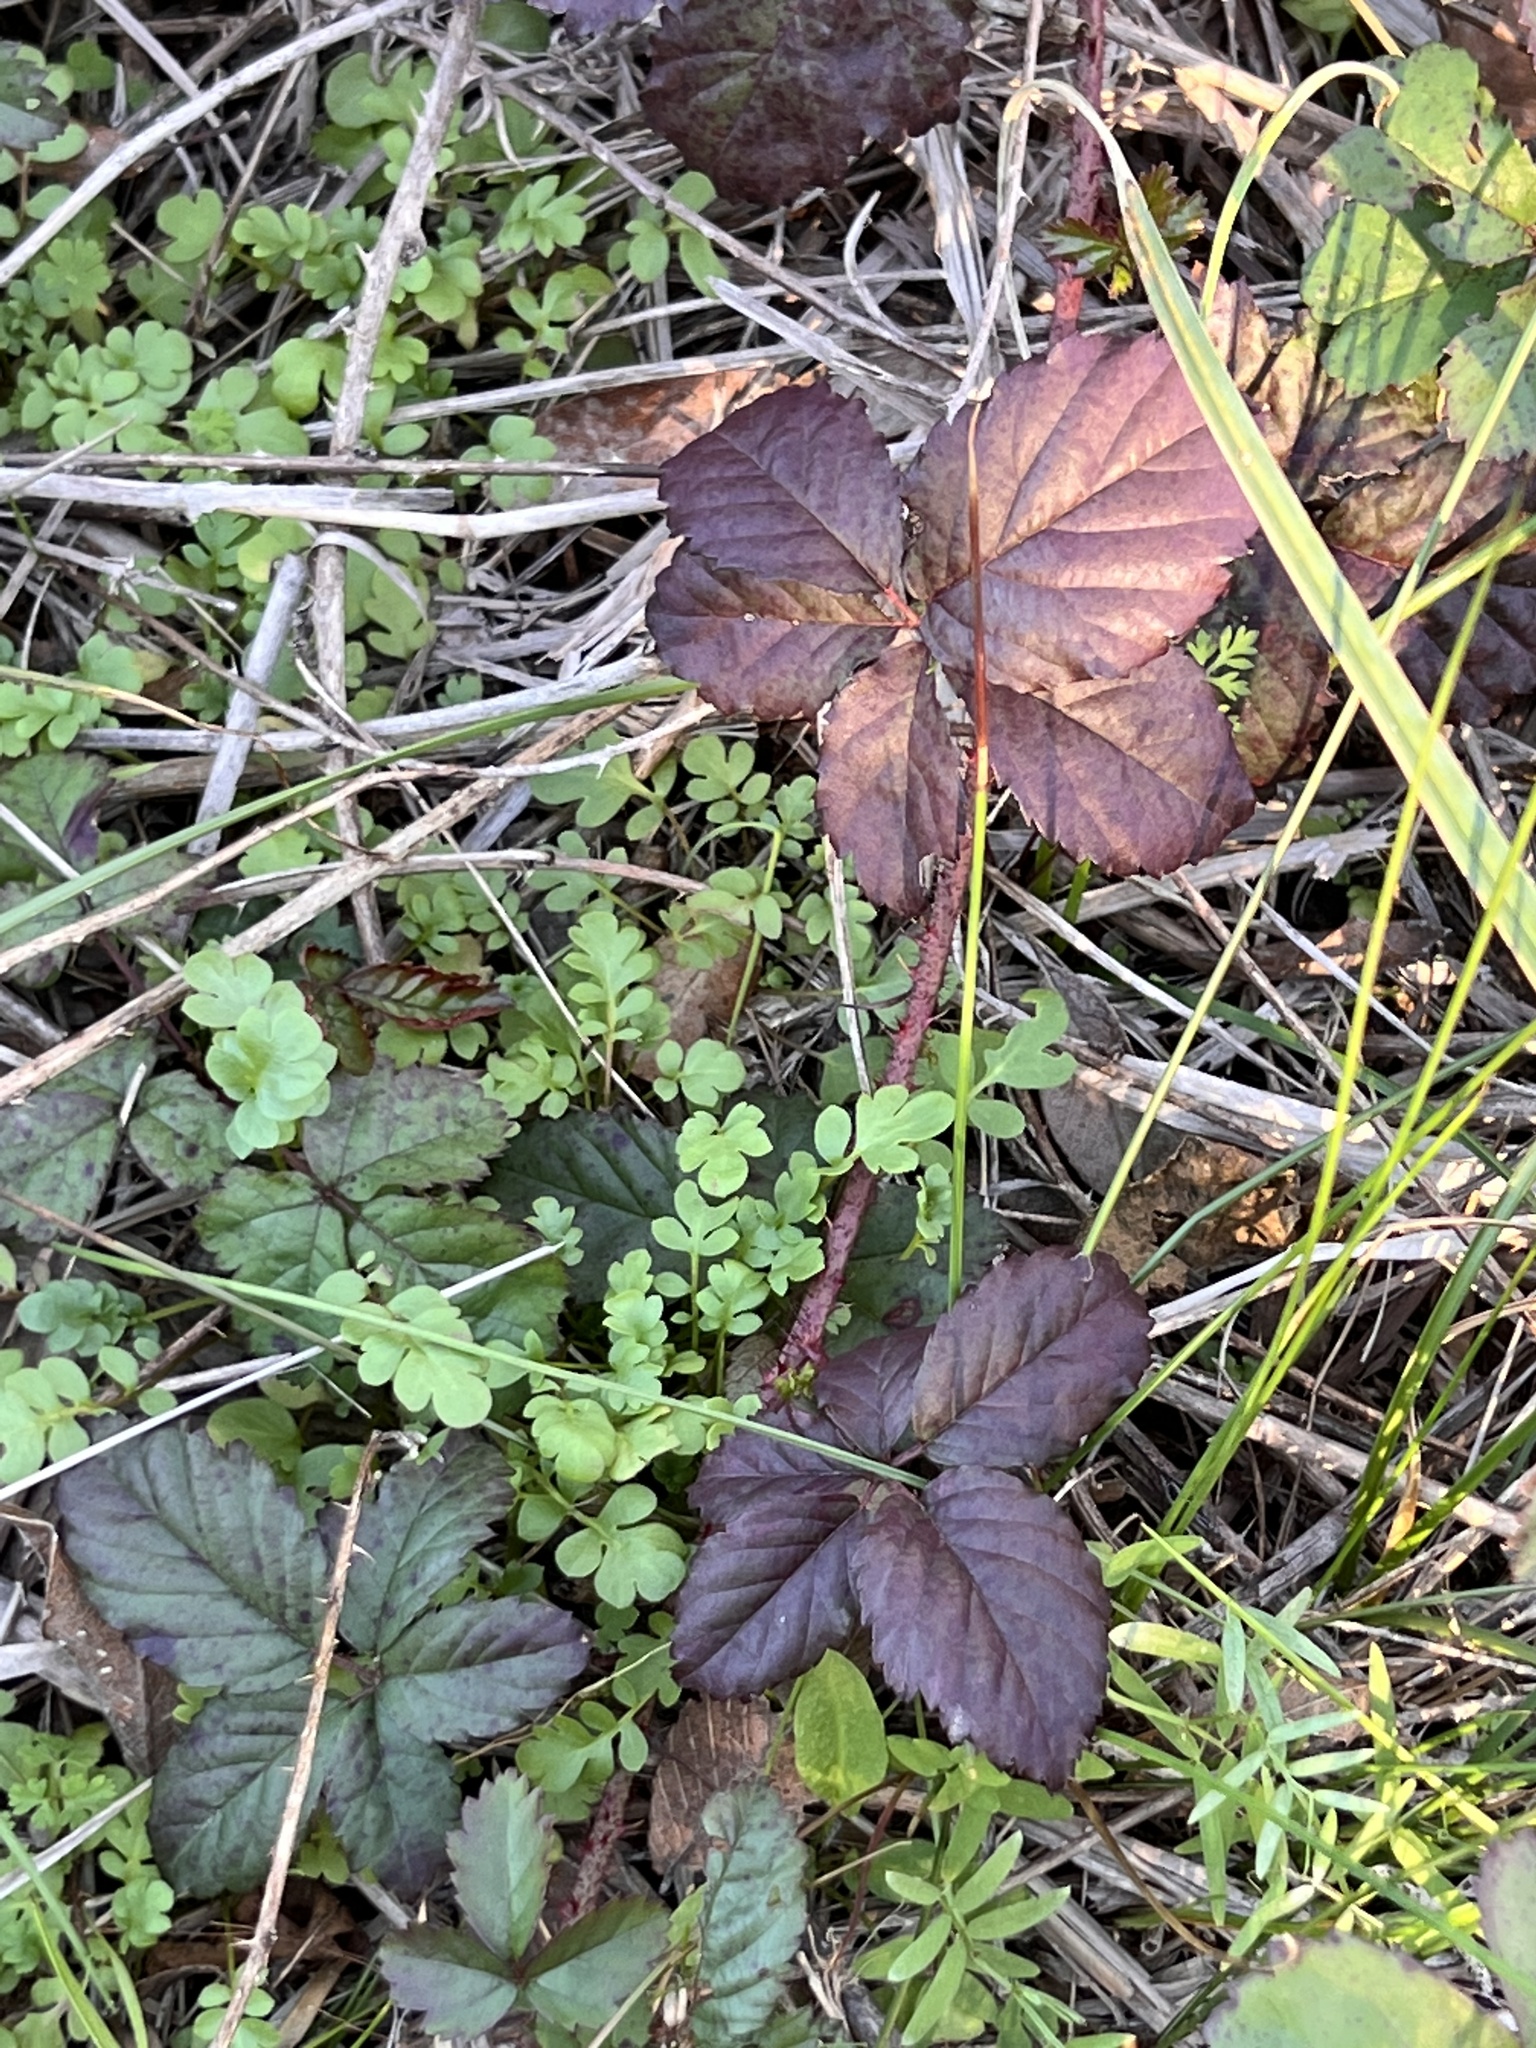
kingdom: Plantae
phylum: Tracheophyta
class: Magnoliopsida
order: Rosales
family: Rosaceae
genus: Rubus
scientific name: Rubus trivialis
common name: Southern dewberry
